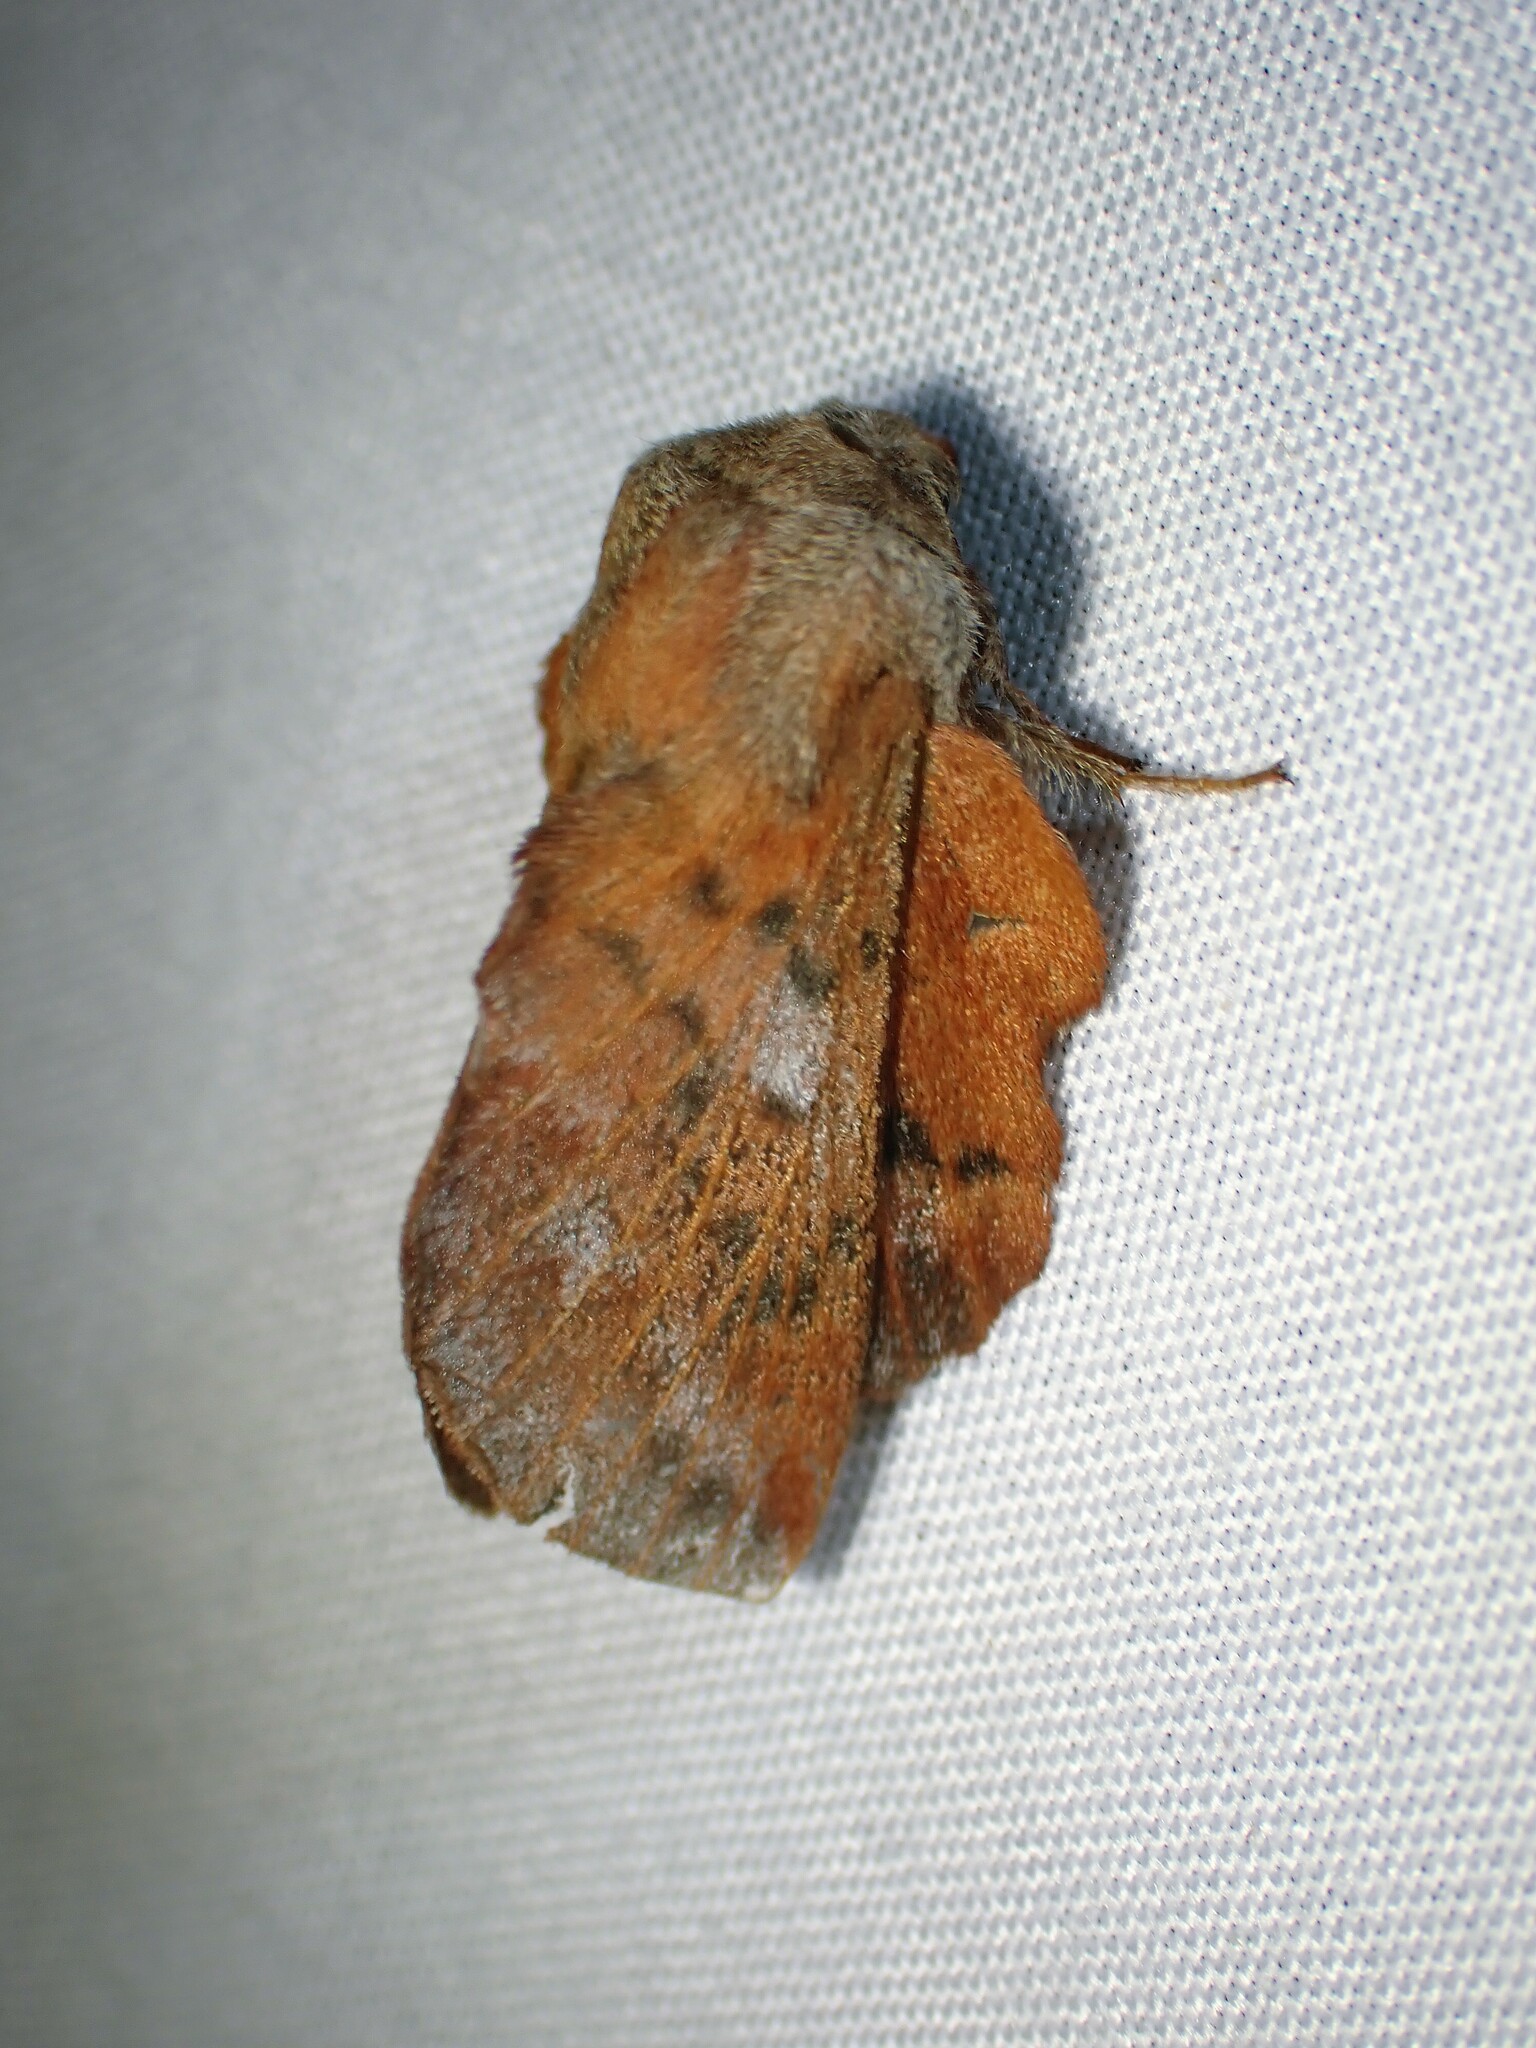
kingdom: Animalia
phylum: Arthropoda
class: Insecta
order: Lepidoptera
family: Lasiocampidae
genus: Phyllodesma
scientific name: Phyllodesma americana
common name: American lappet moth
